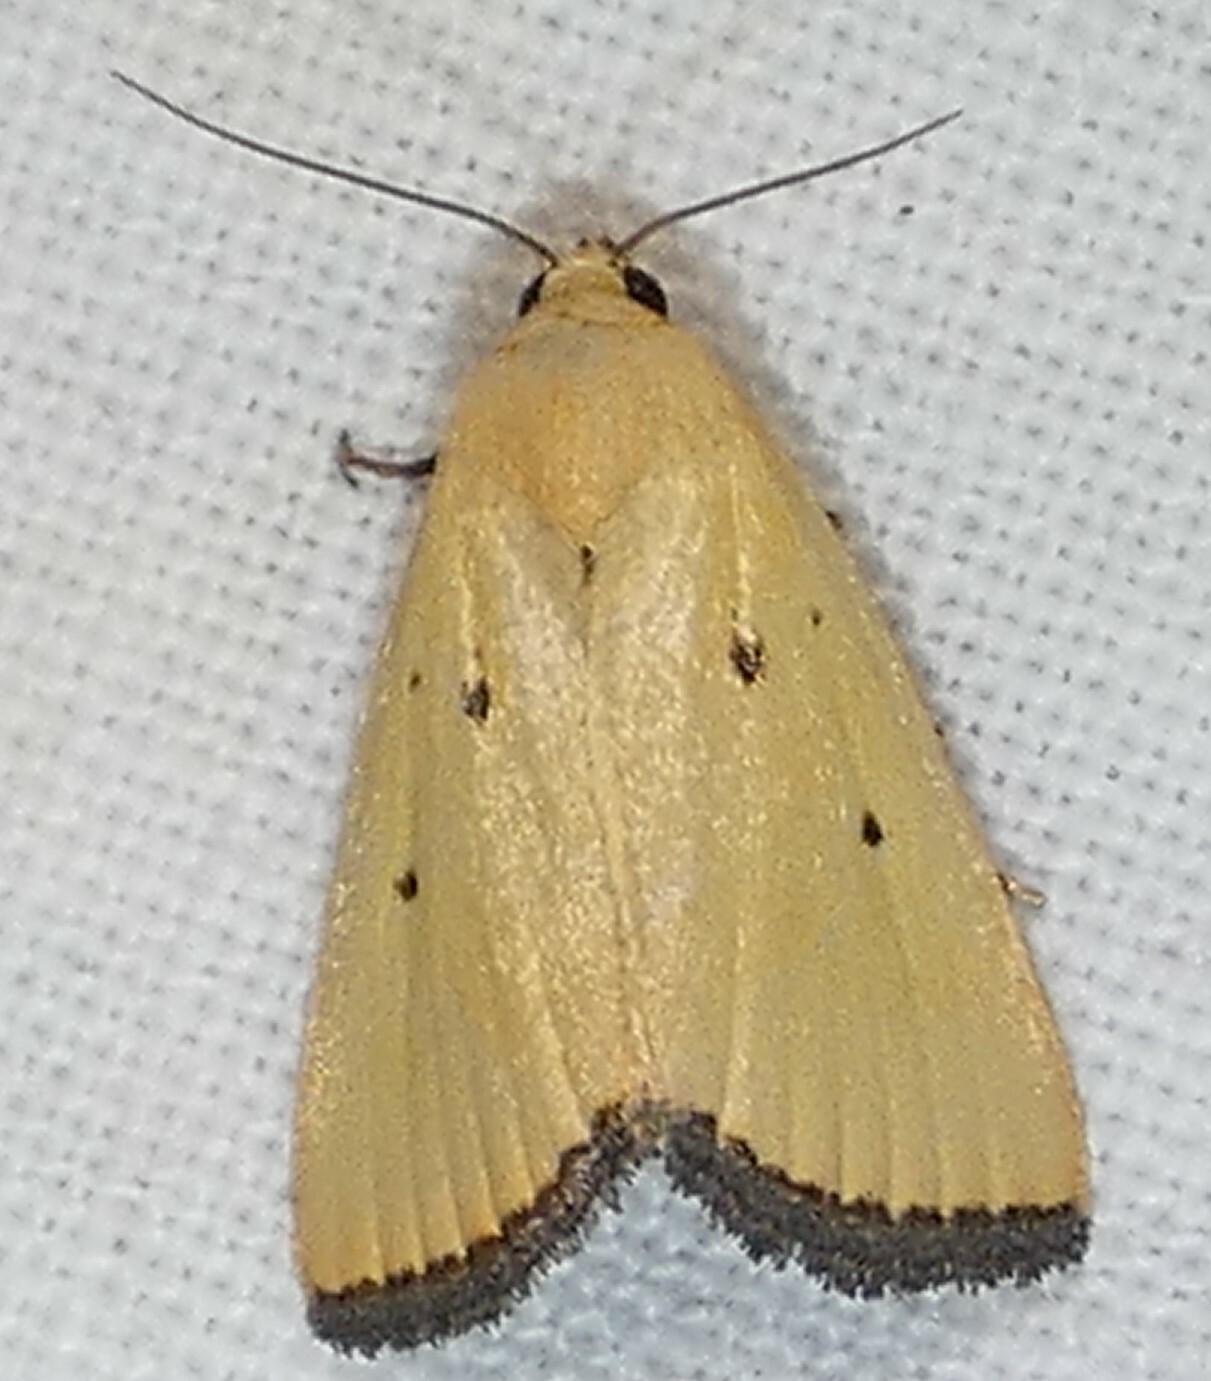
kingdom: Animalia
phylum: Arthropoda
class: Insecta
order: Lepidoptera
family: Noctuidae
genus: Marimatha
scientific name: Marimatha nigrofimbria
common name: Black-bordered lemon moth
